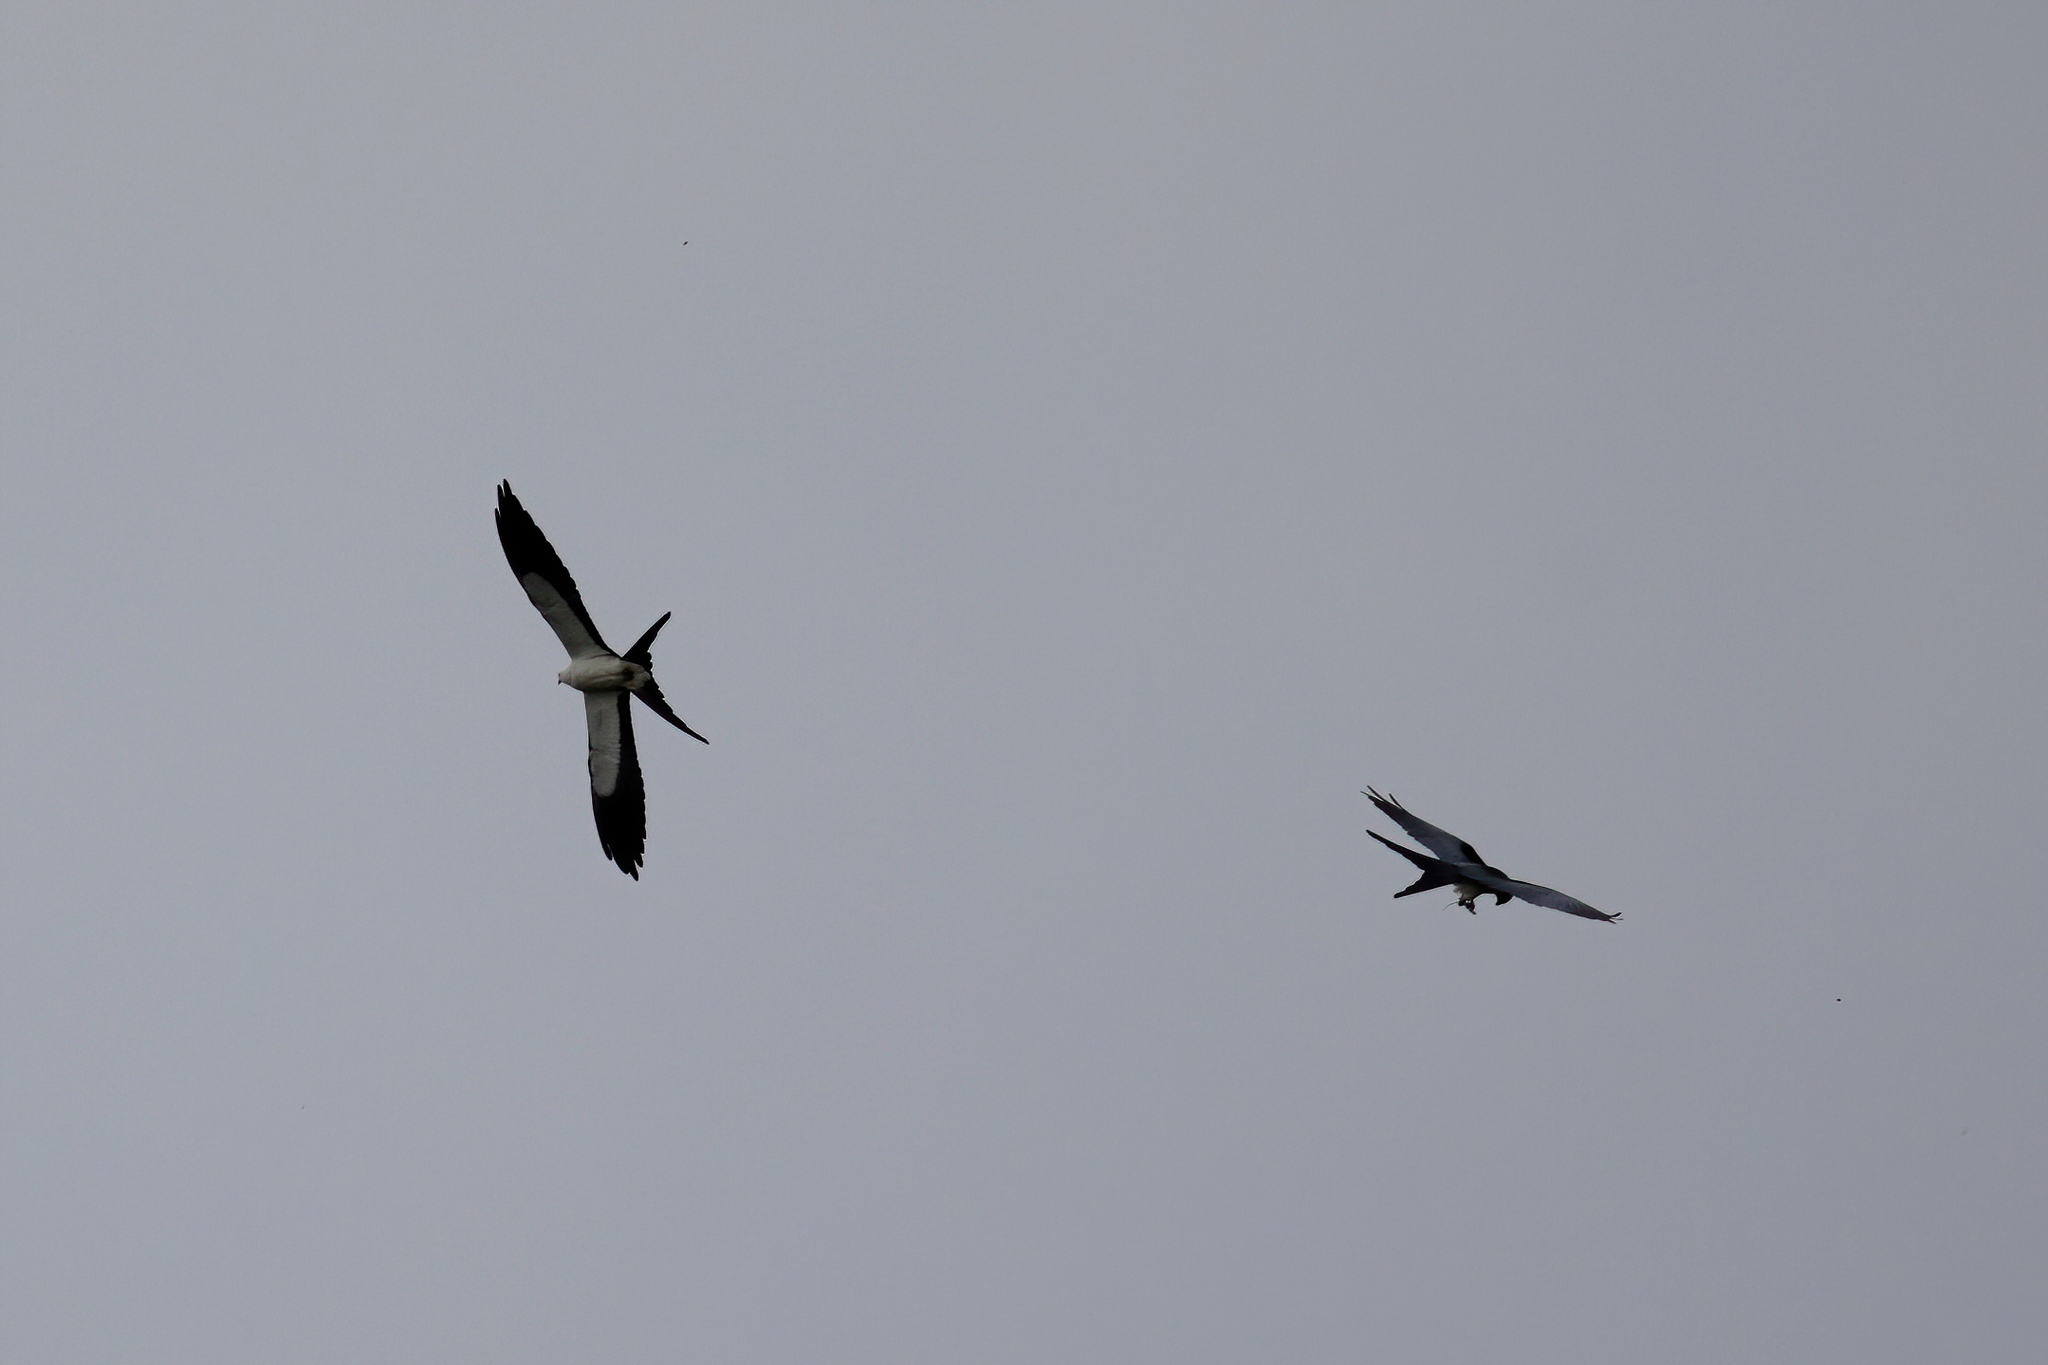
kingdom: Animalia
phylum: Chordata
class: Aves
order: Accipitriformes
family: Accipitridae
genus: Elanoides
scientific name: Elanoides forficatus
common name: Swallow-tailed kite
